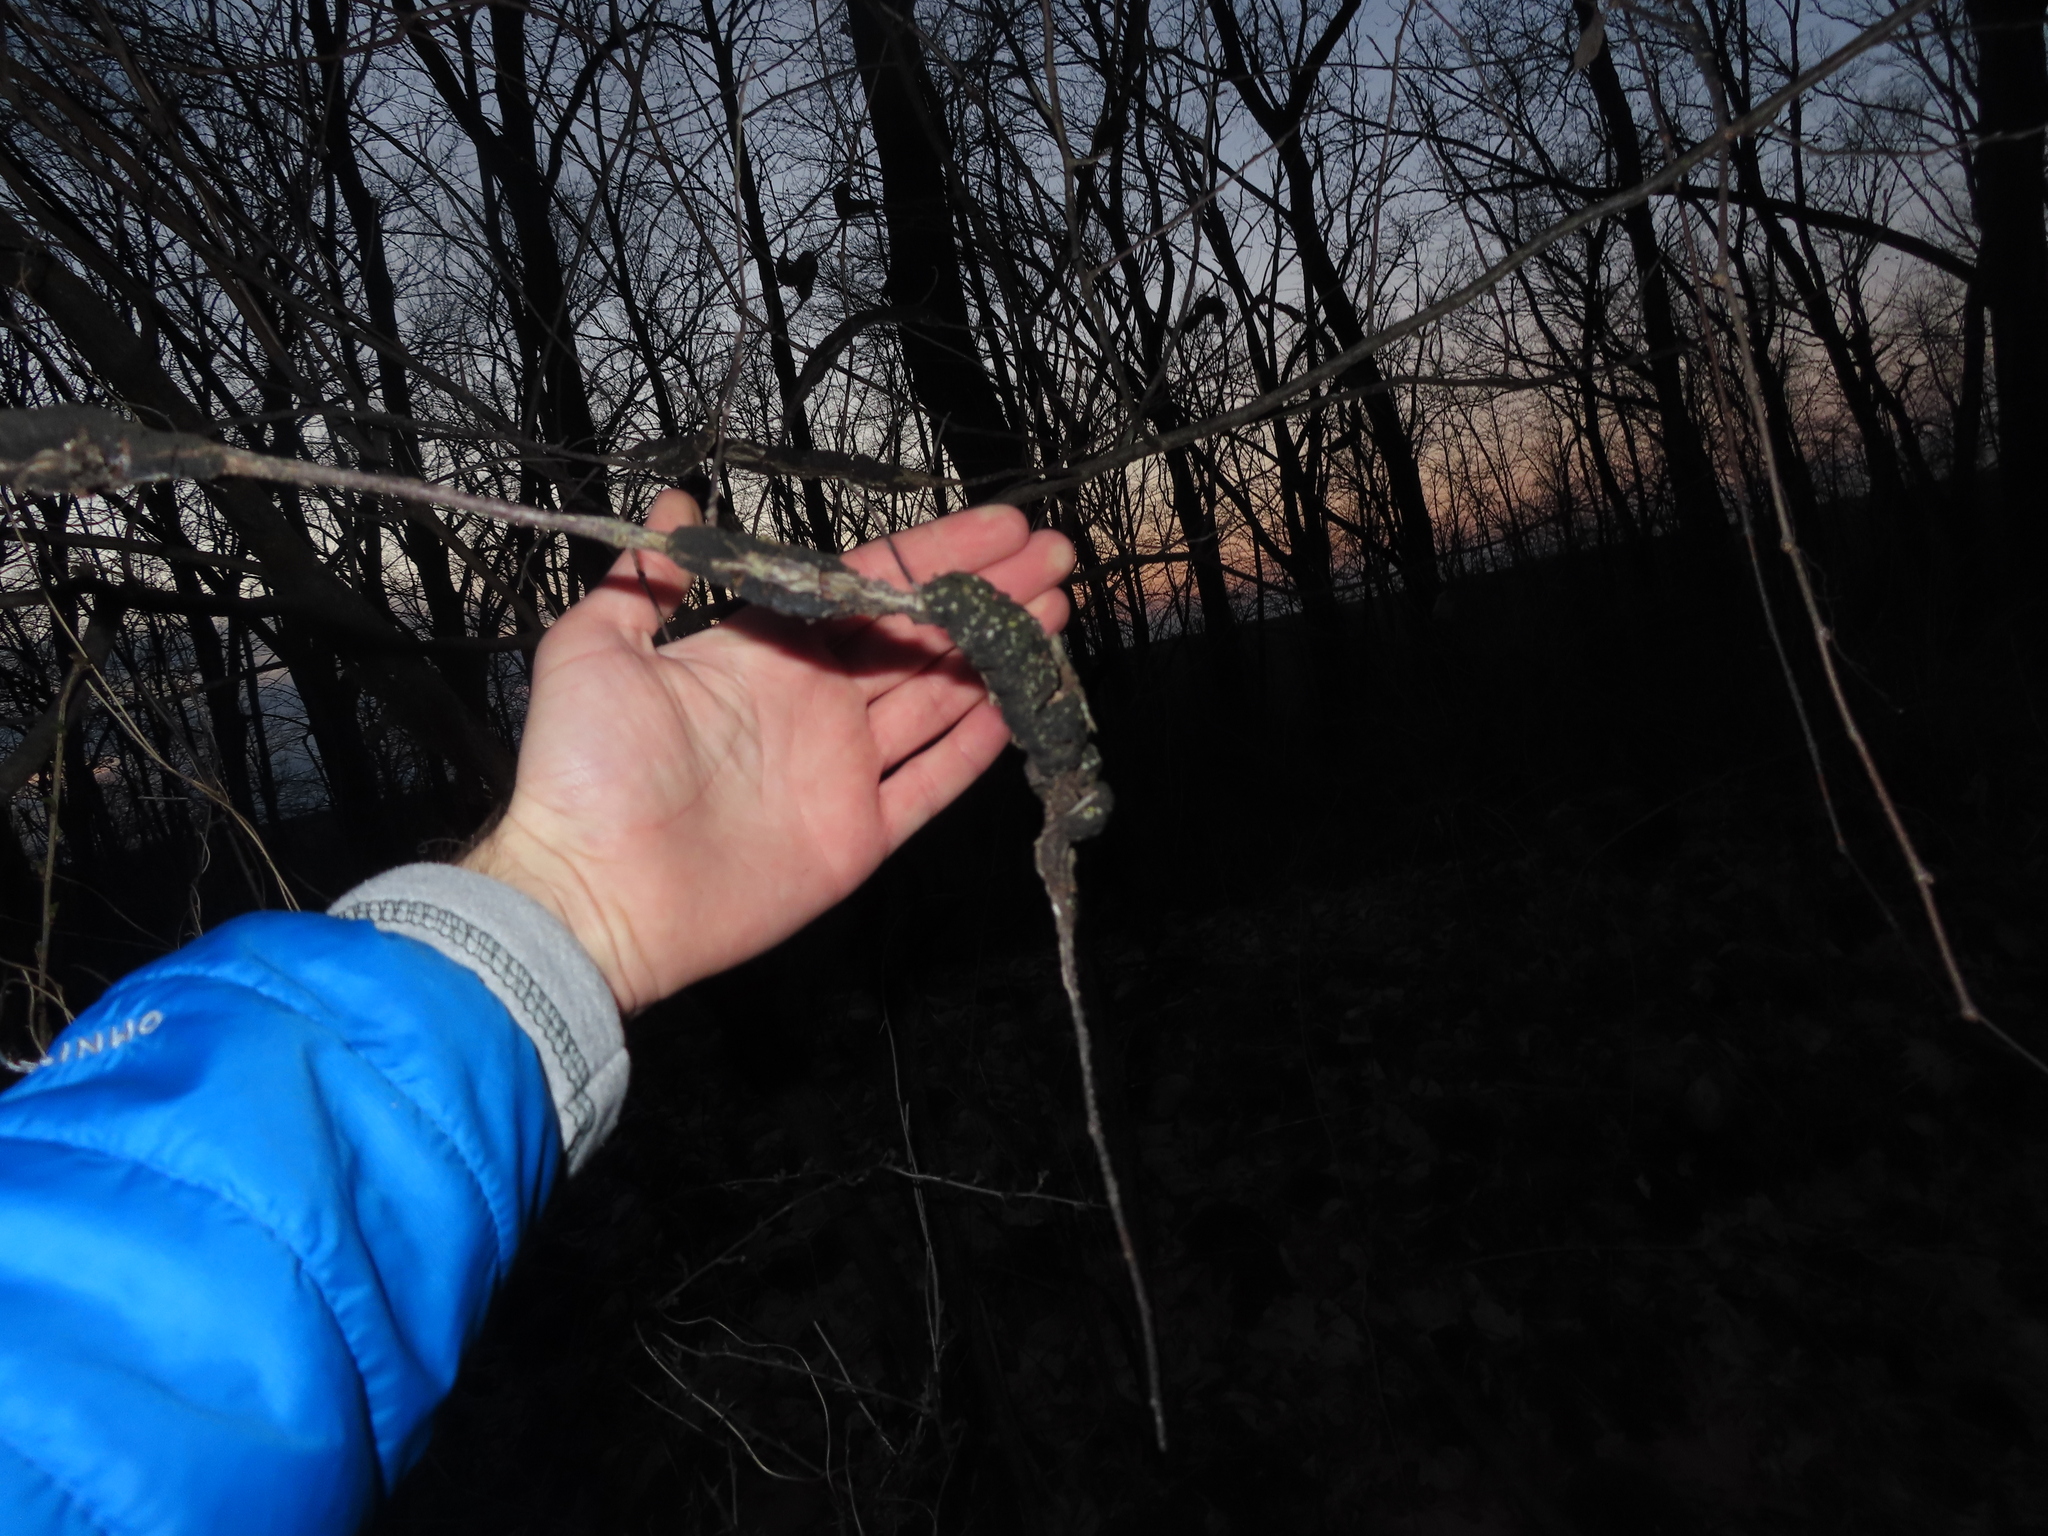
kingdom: Fungi
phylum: Ascomycota
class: Dothideomycetes
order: Venturiales
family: Venturiaceae
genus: Apiosporina
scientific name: Apiosporina morbosa
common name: Black knot
